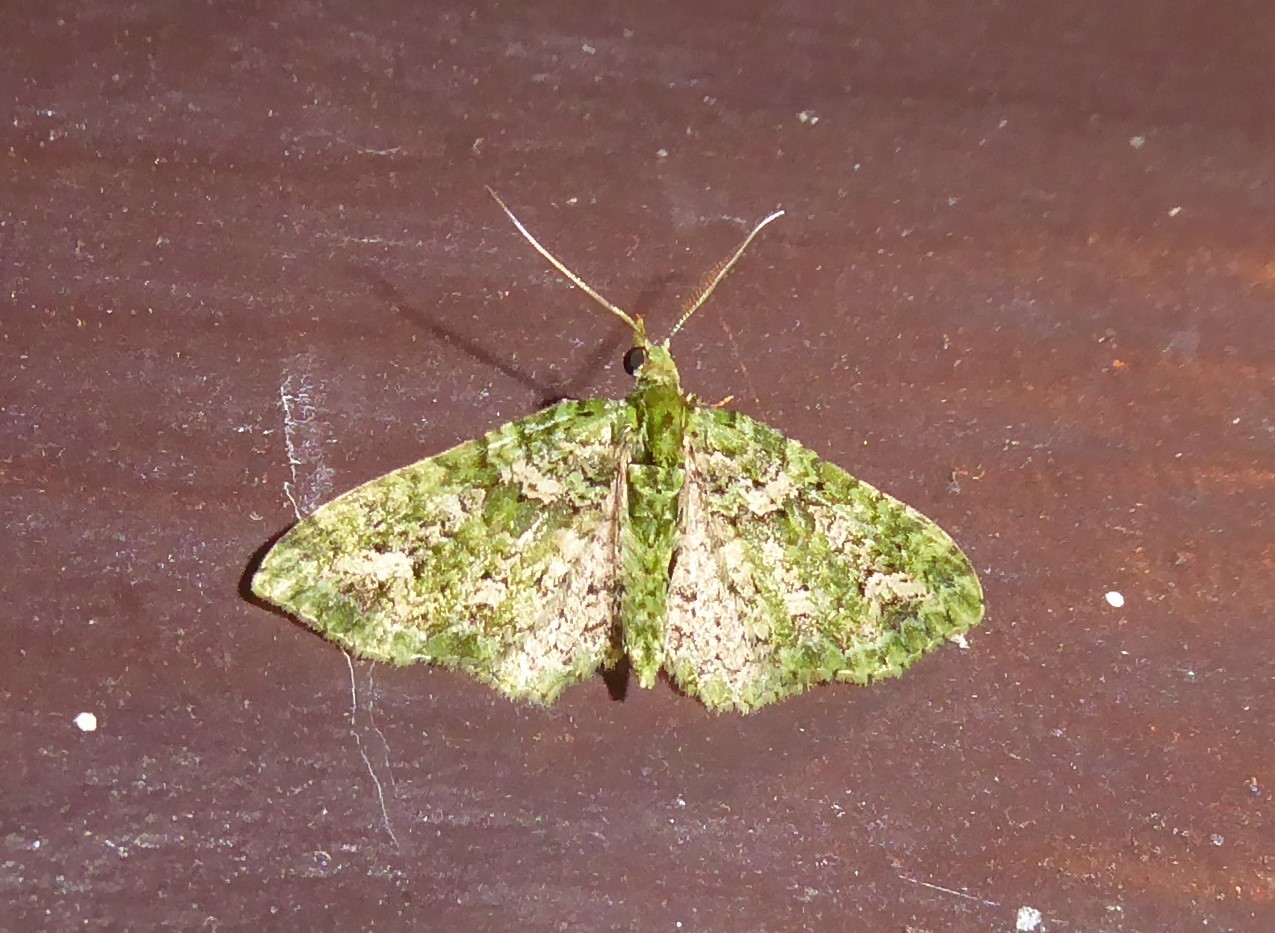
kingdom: Animalia
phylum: Arthropoda
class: Insecta
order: Lepidoptera
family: Geometridae
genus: Pasiphila
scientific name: Pasiphila muscosata
